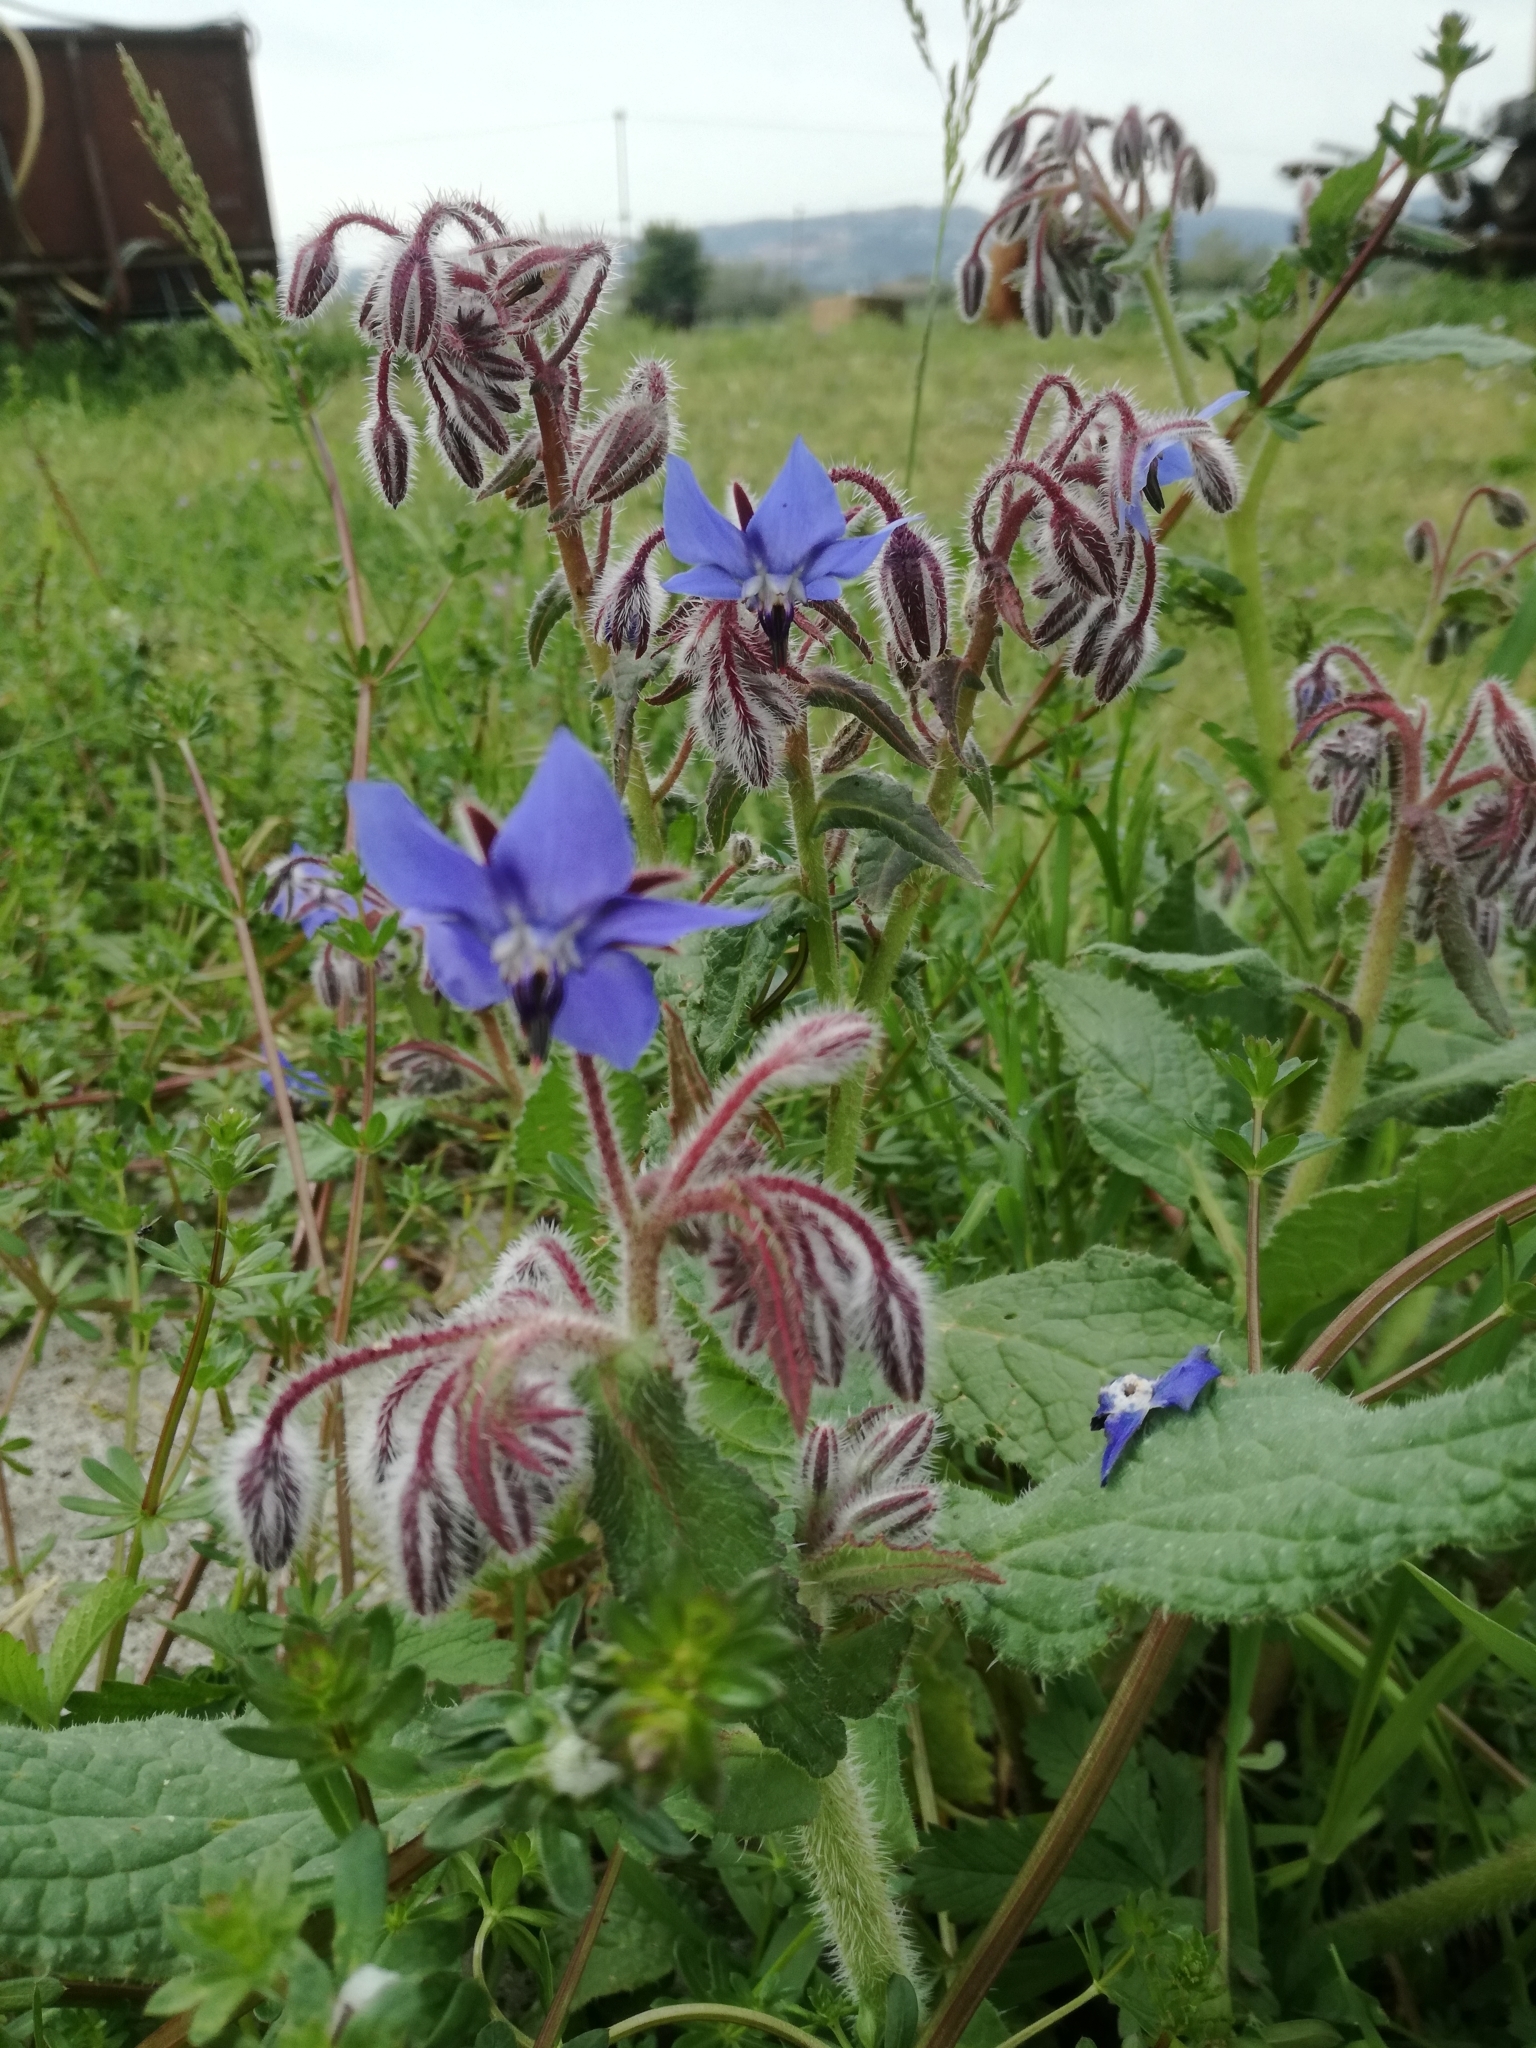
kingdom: Plantae
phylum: Tracheophyta
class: Magnoliopsida
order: Boraginales
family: Boraginaceae
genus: Borago
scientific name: Borago officinalis
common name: Borage
